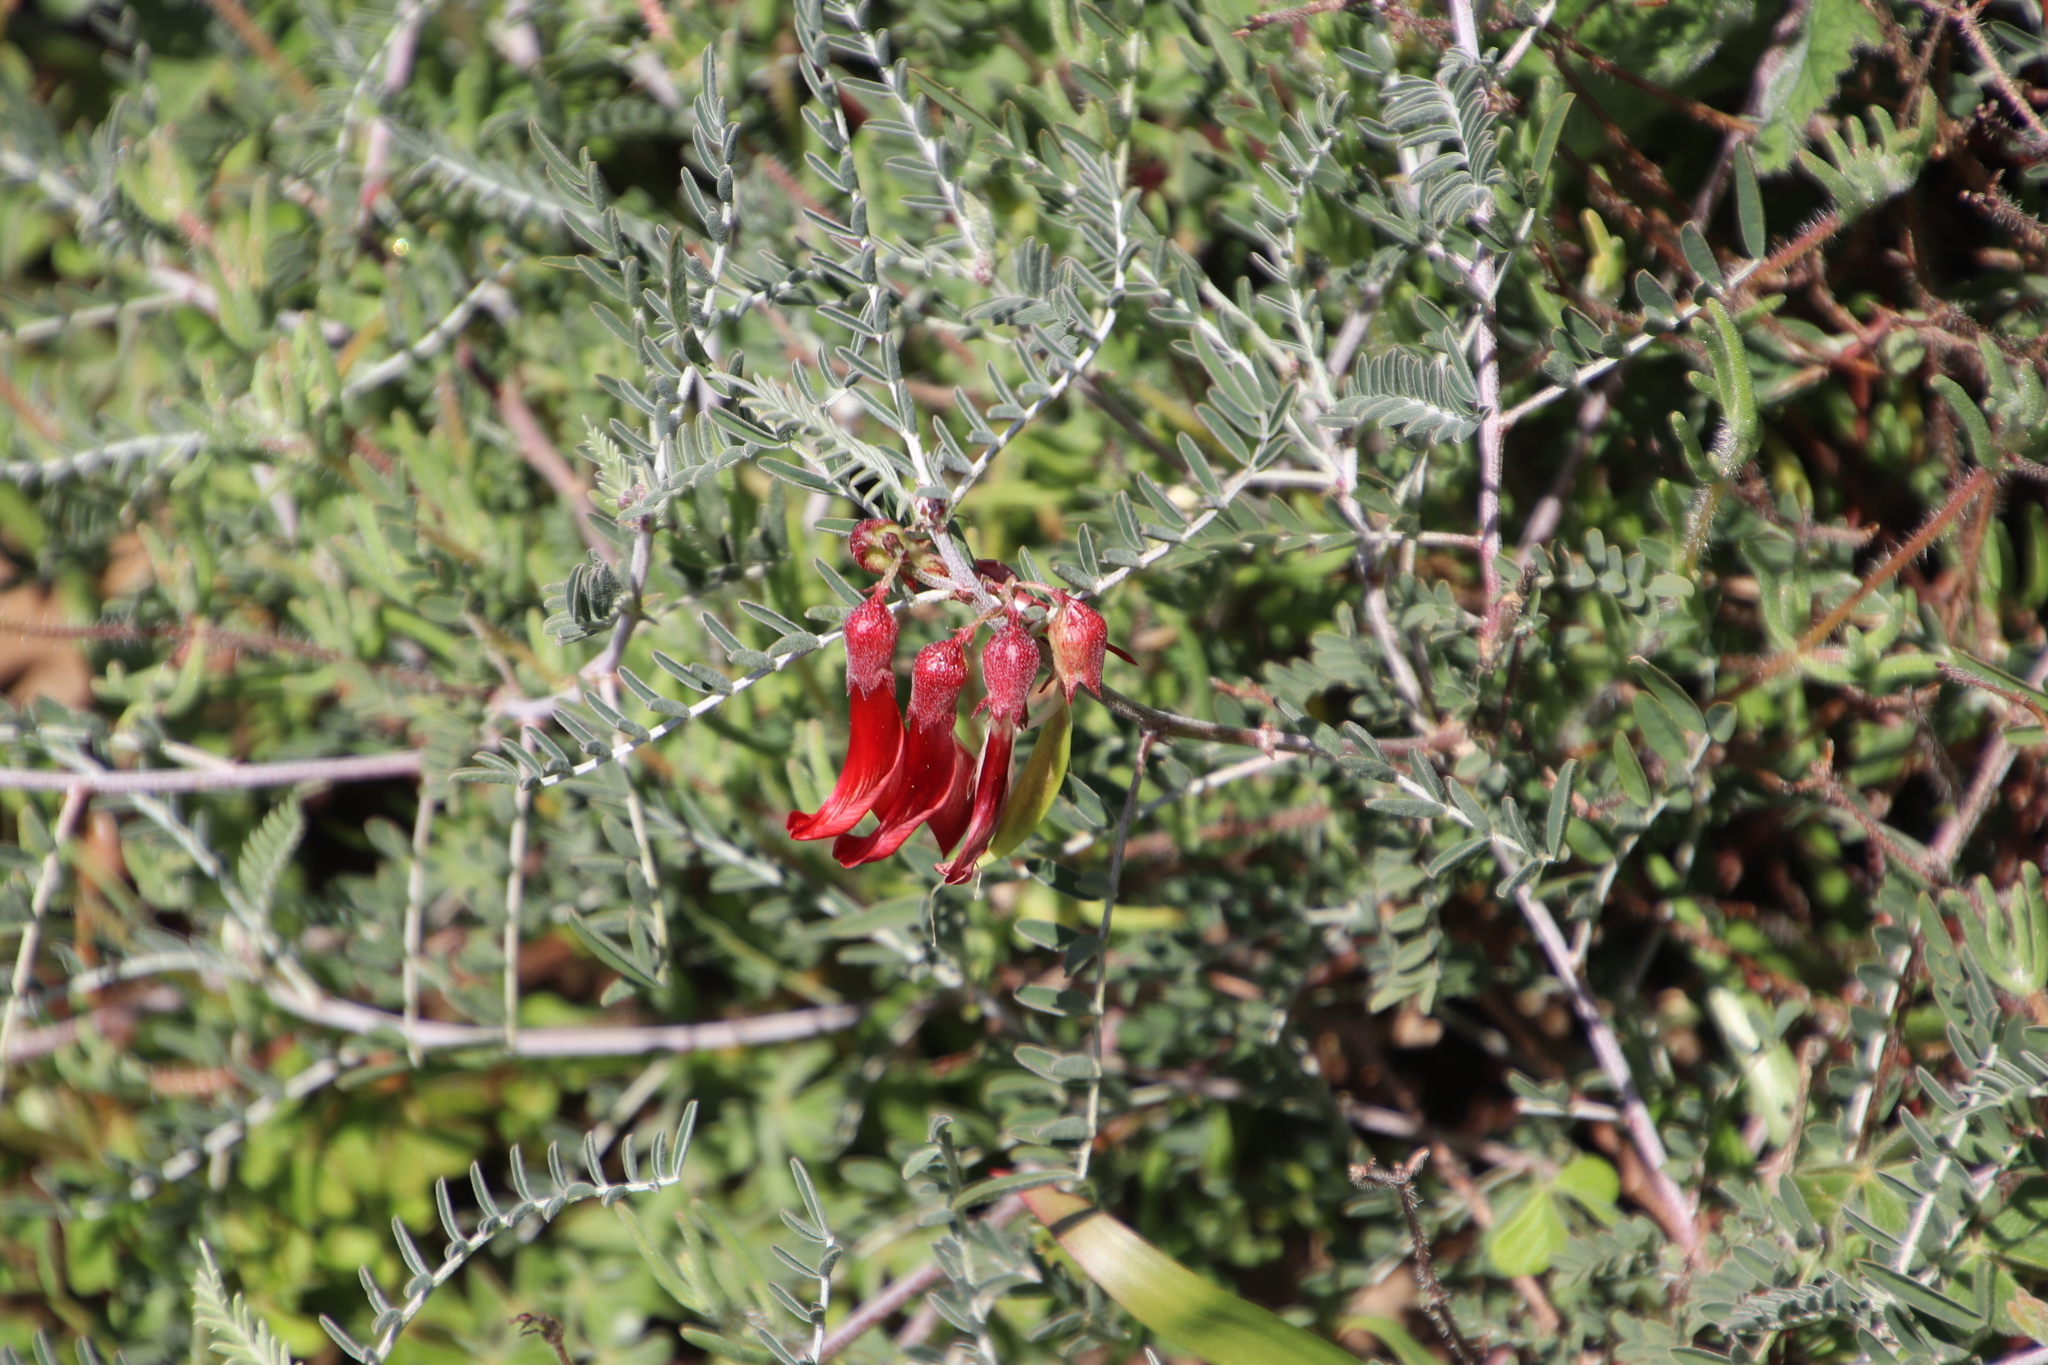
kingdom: Plantae
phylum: Tracheophyta
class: Magnoliopsida
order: Fabales
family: Fabaceae
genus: Lessertia
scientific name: Lessertia frutescens
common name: Balloon-pea
